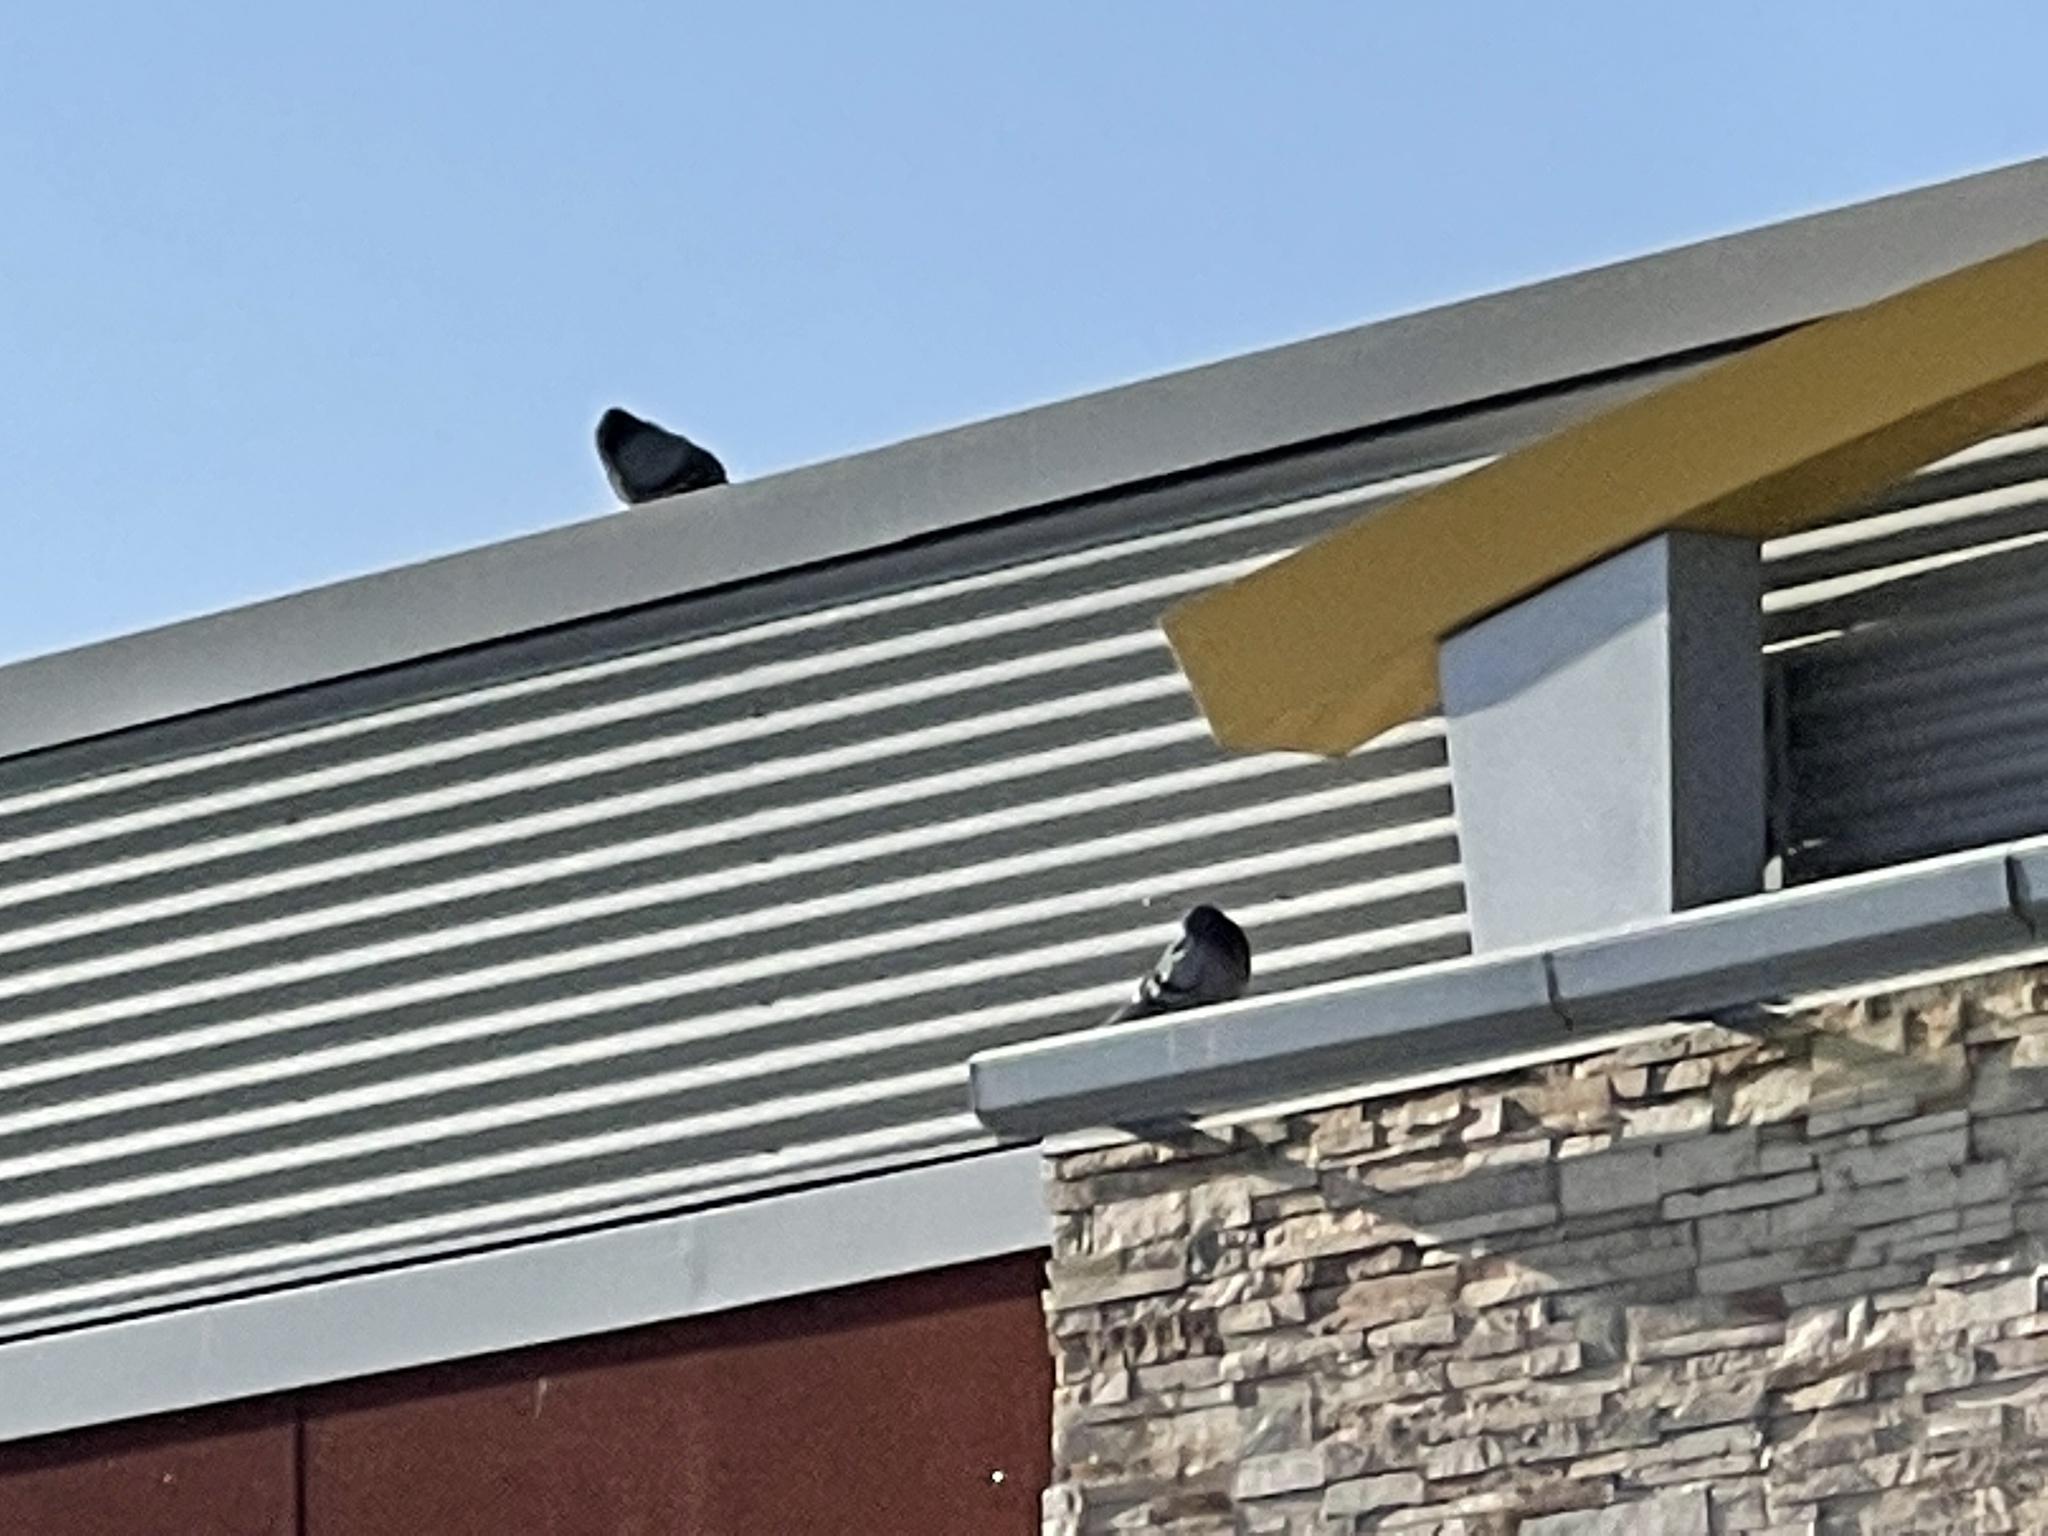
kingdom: Animalia
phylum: Chordata
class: Aves
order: Columbiformes
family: Columbidae
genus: Columba
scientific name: Columba livia
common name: Rock pigeon
